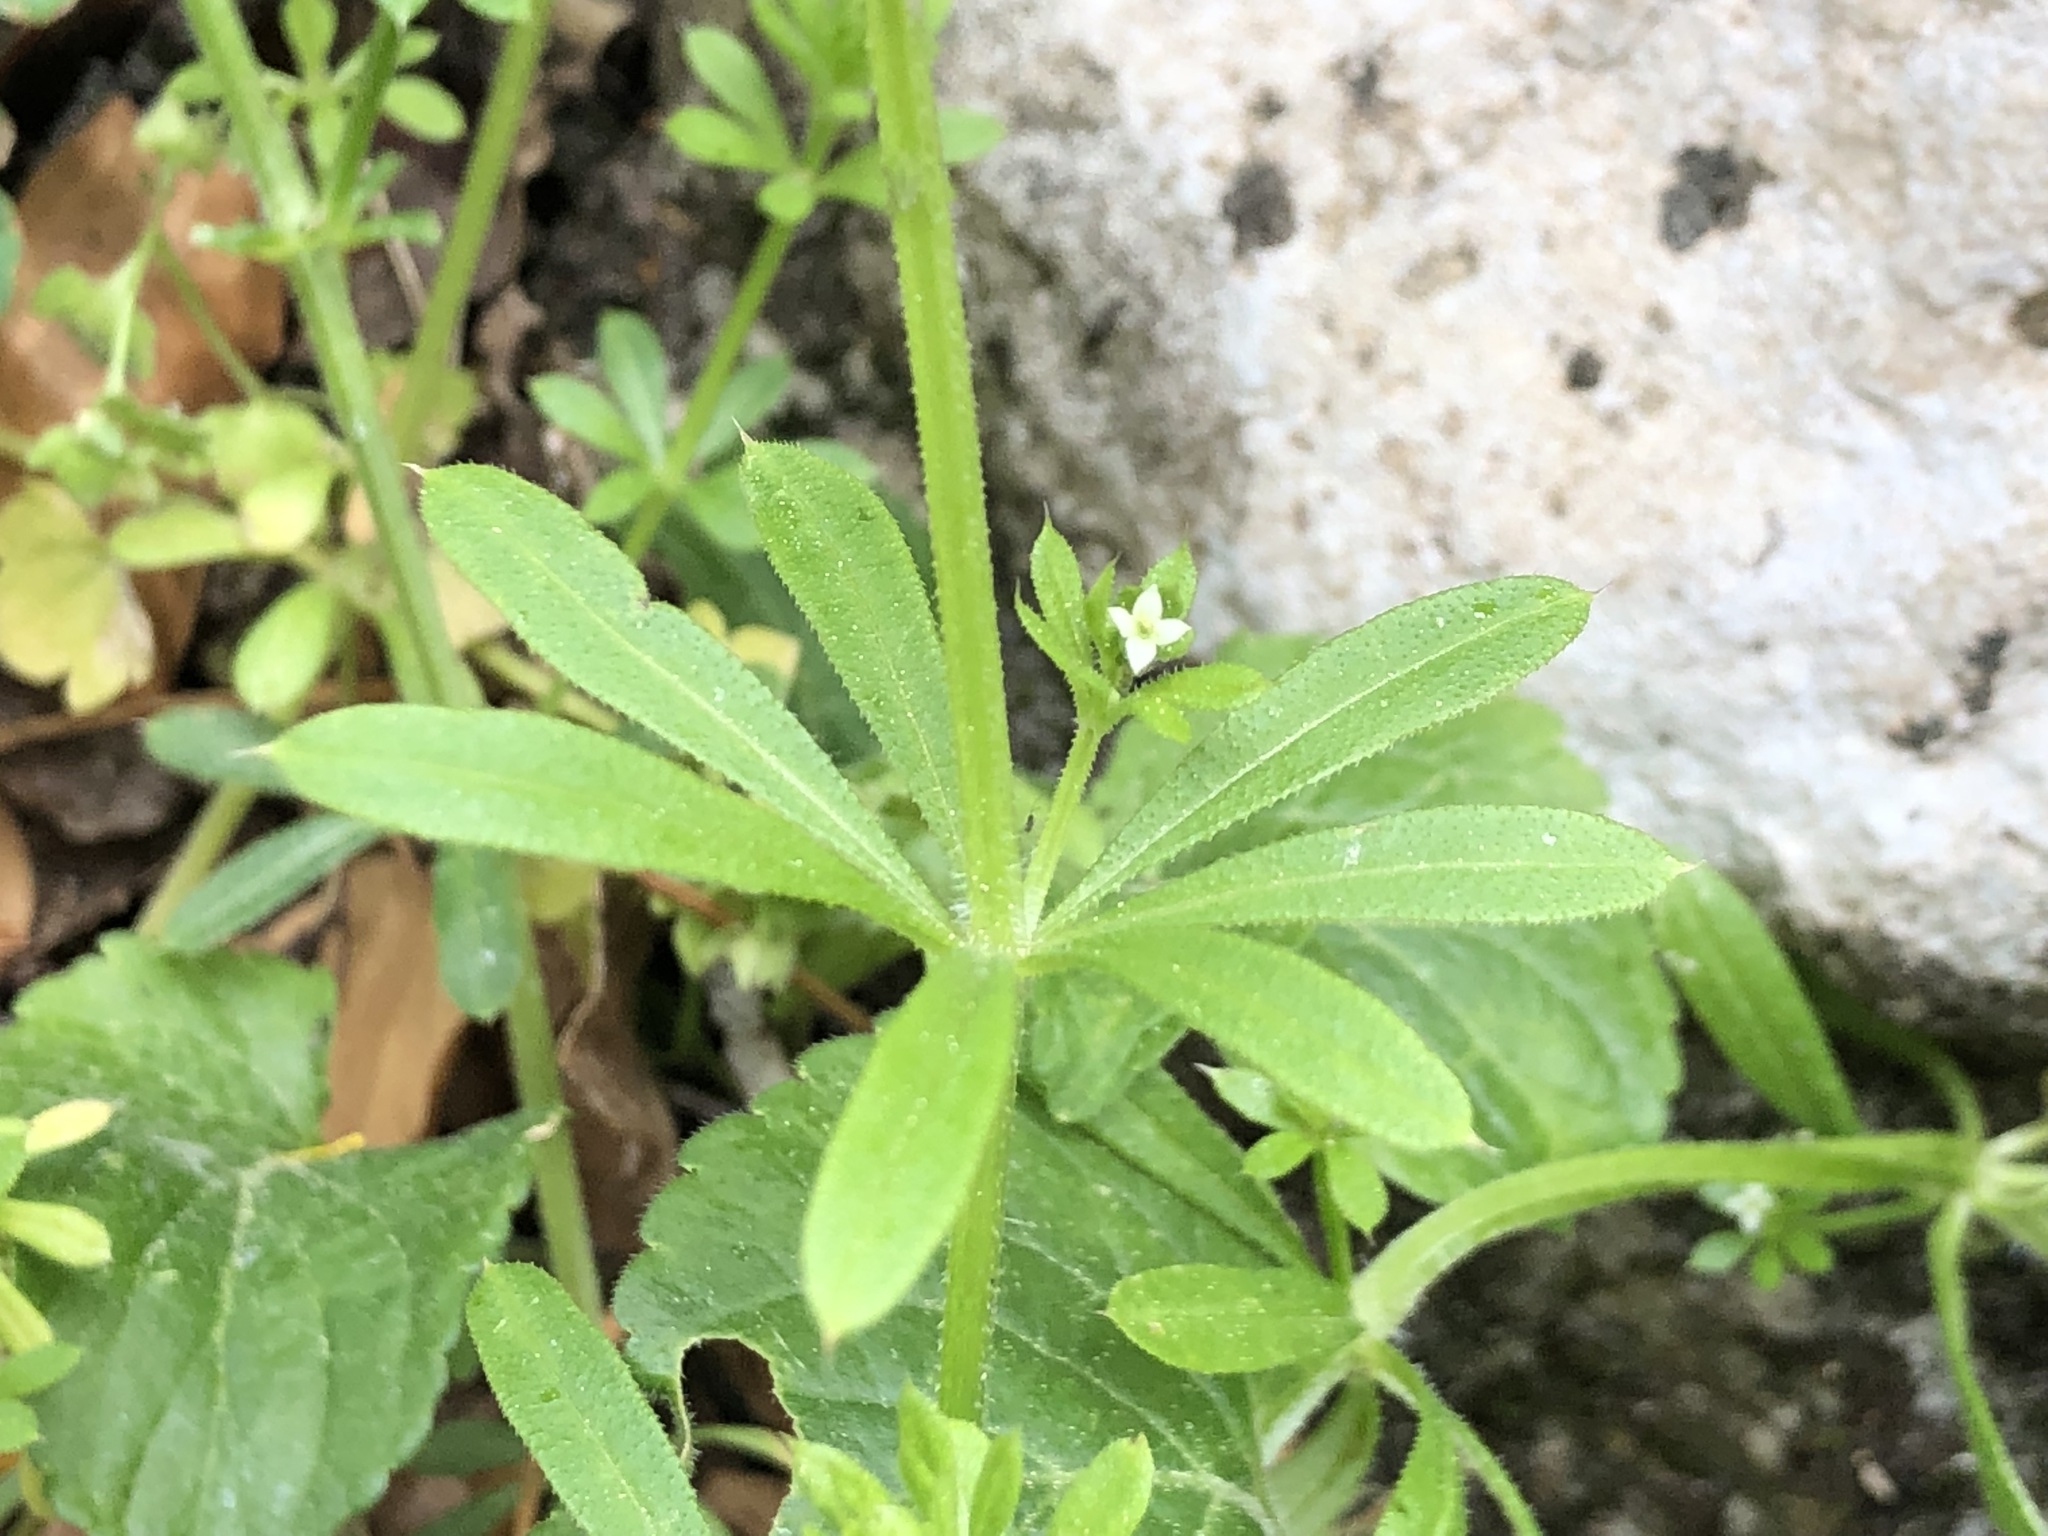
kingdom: Plantae
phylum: Tracheophyta
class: Magnoliopsida
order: Gentianales
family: Rubiaceae
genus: Galium
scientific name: Galium aparine
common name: Cleavers
